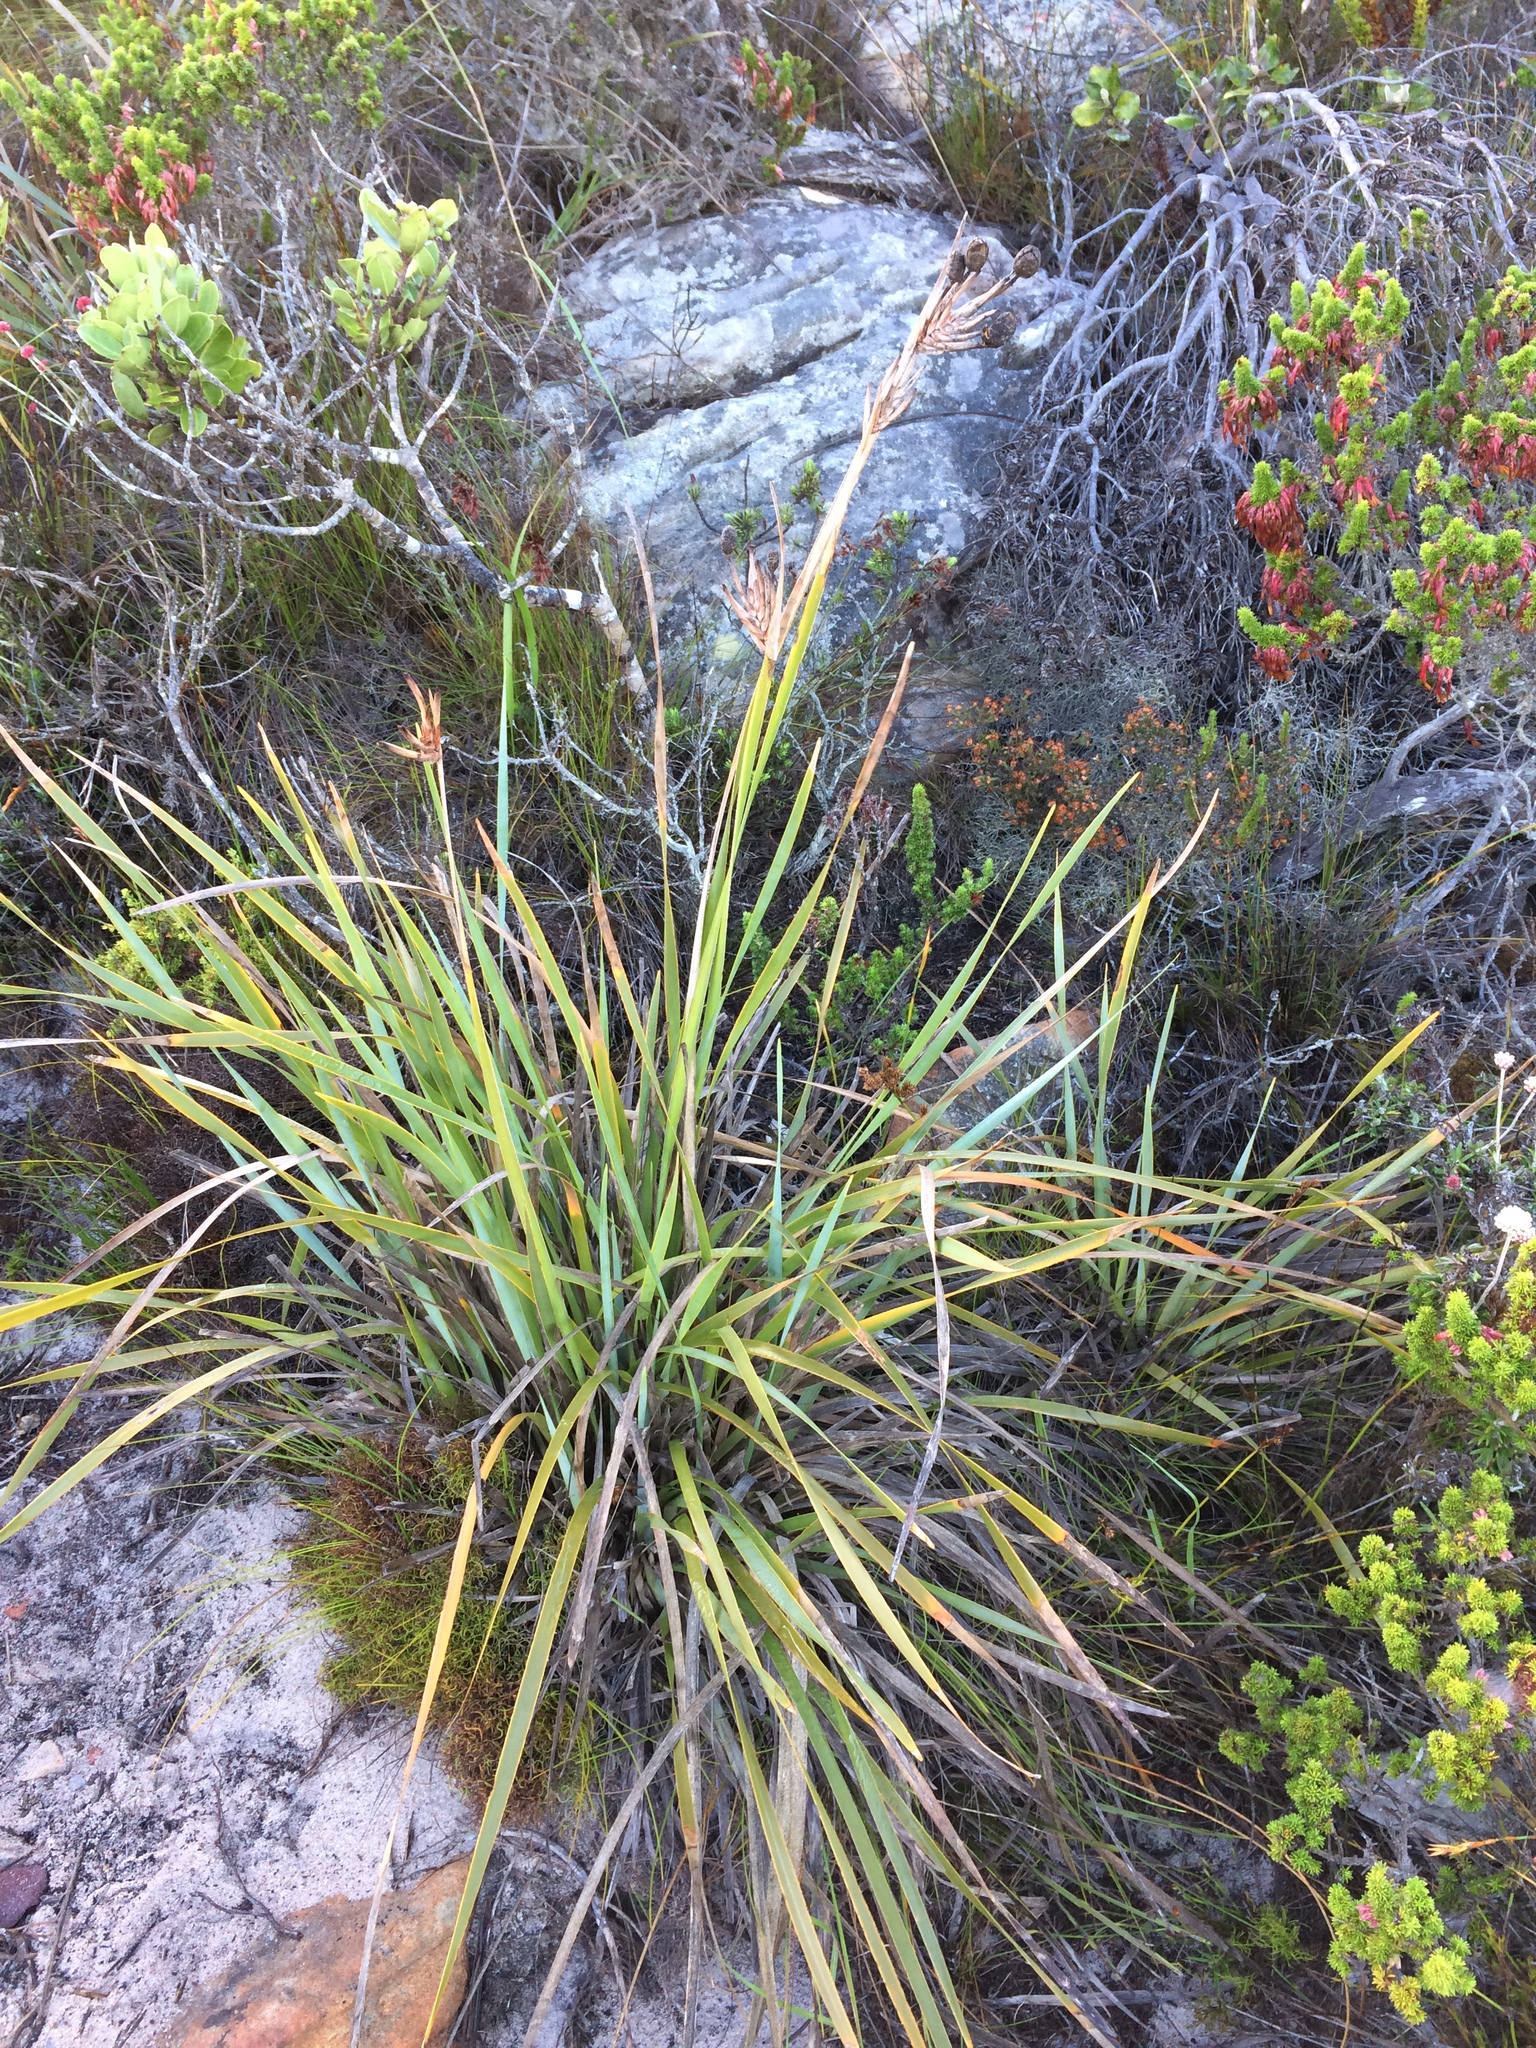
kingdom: Plantae
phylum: Tracheophyta
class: Liliopsida
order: Asparagales
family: Iridaceae
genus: Bobartia
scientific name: Bobartia gladiata
